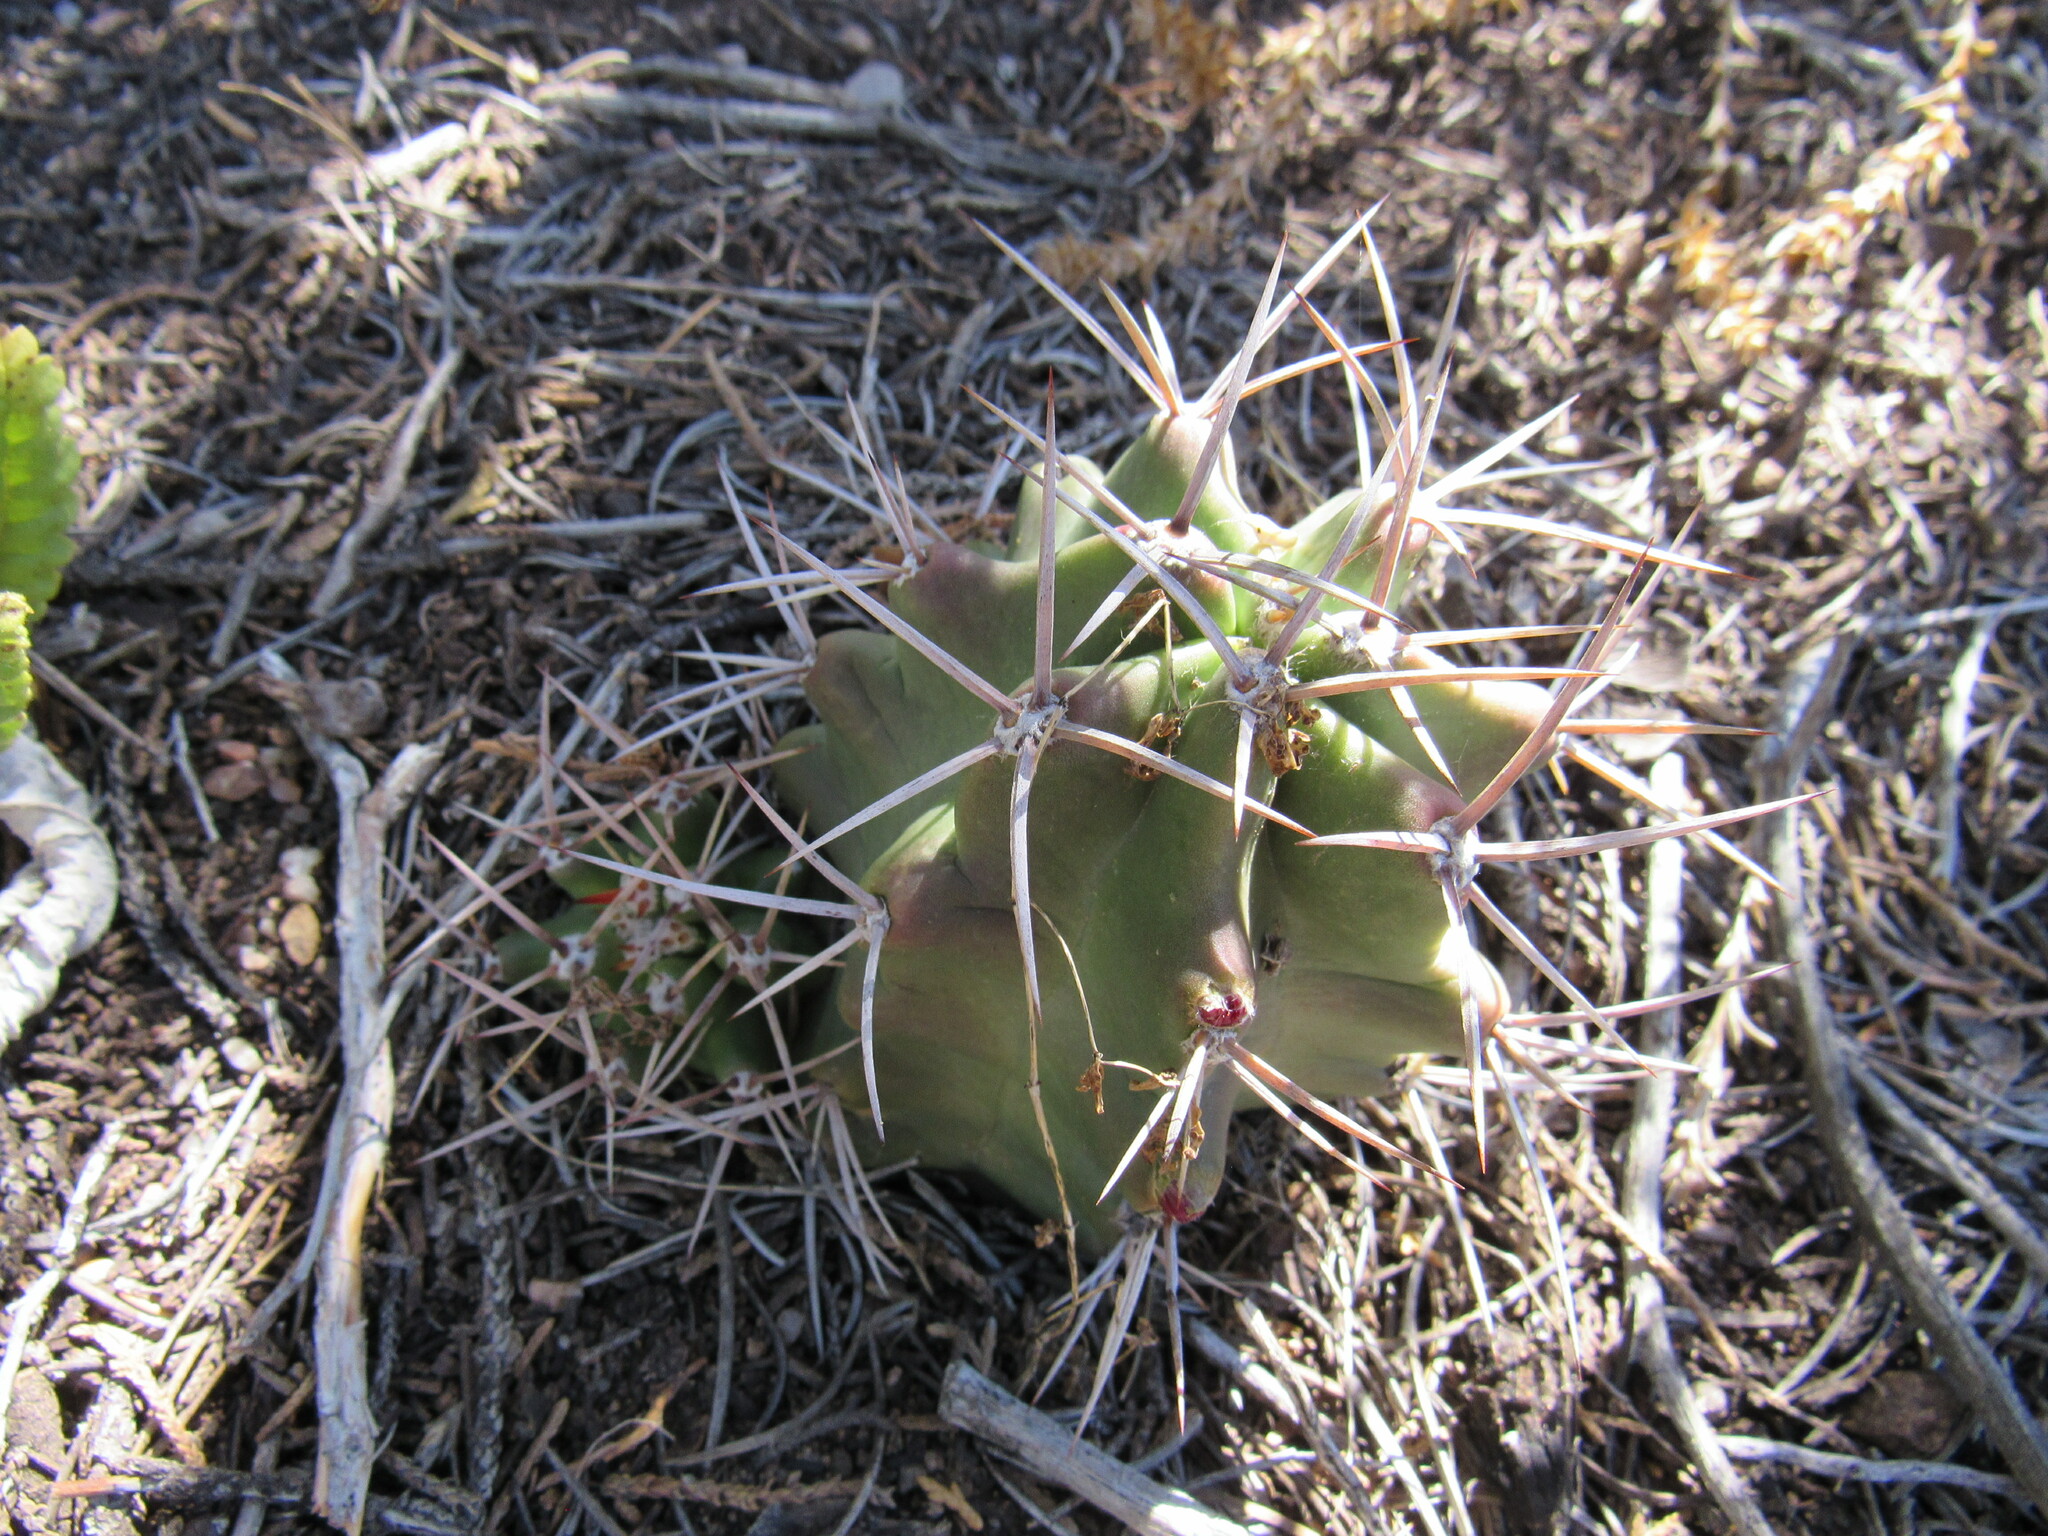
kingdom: Plantae
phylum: Tracheophyta
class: Magnoliopsida
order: Caryophyllales
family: Cactaceae
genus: Echinocereus
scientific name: Echinocereus triglochidiatus
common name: Claretcup hedgehog
